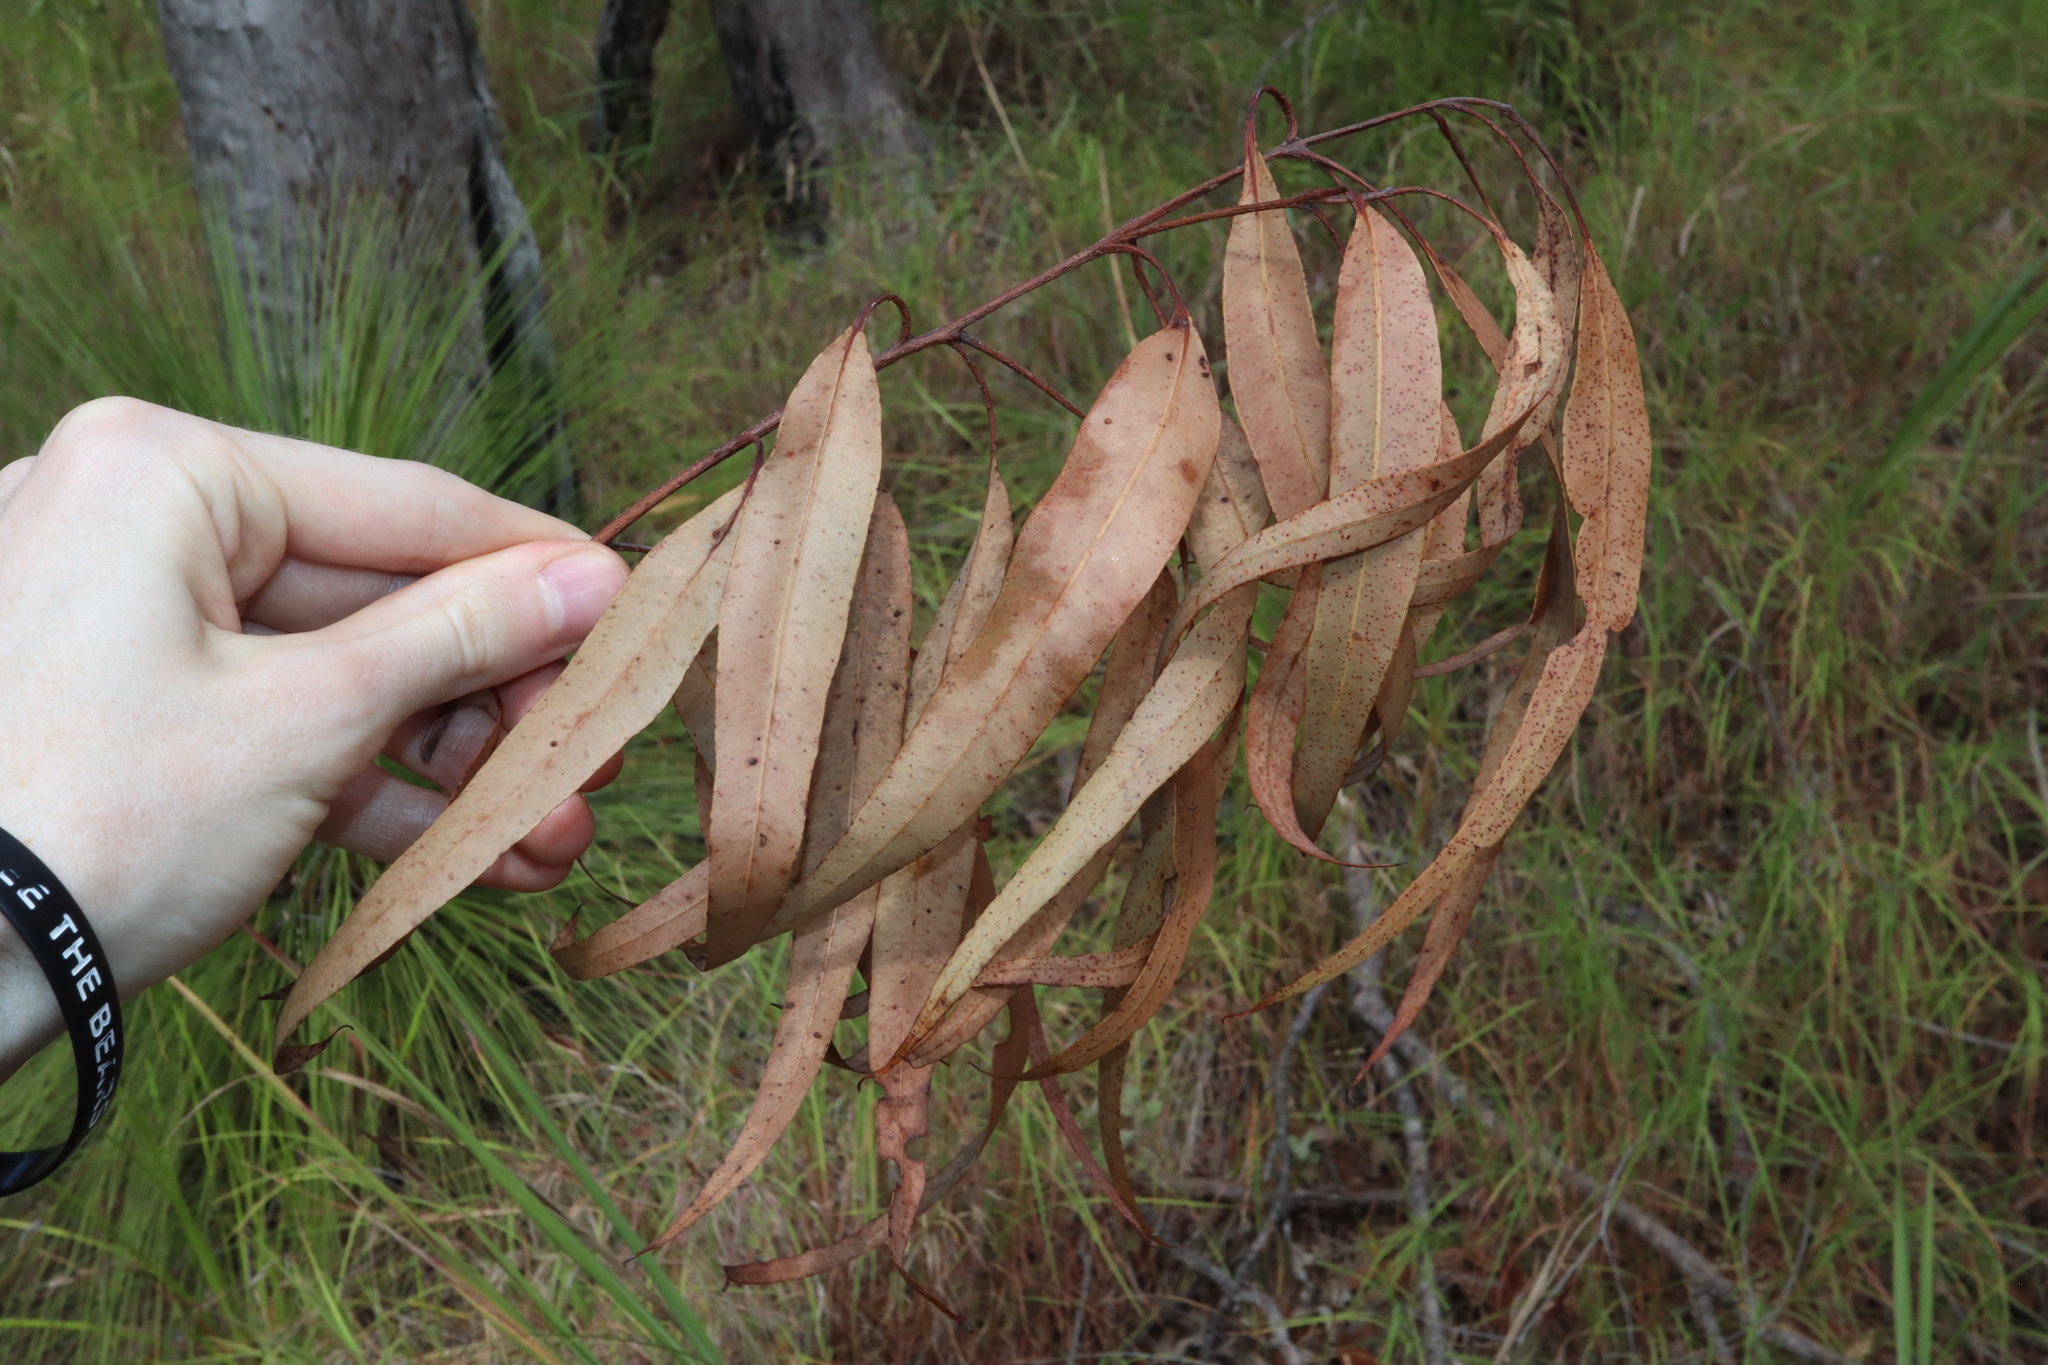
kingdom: Plantae
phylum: Tracheophyta
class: Magnoliopsida
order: Myrtales
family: Myrtaceae
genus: Corymbia
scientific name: Corymbia intermedia
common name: Pink-bloodwood
